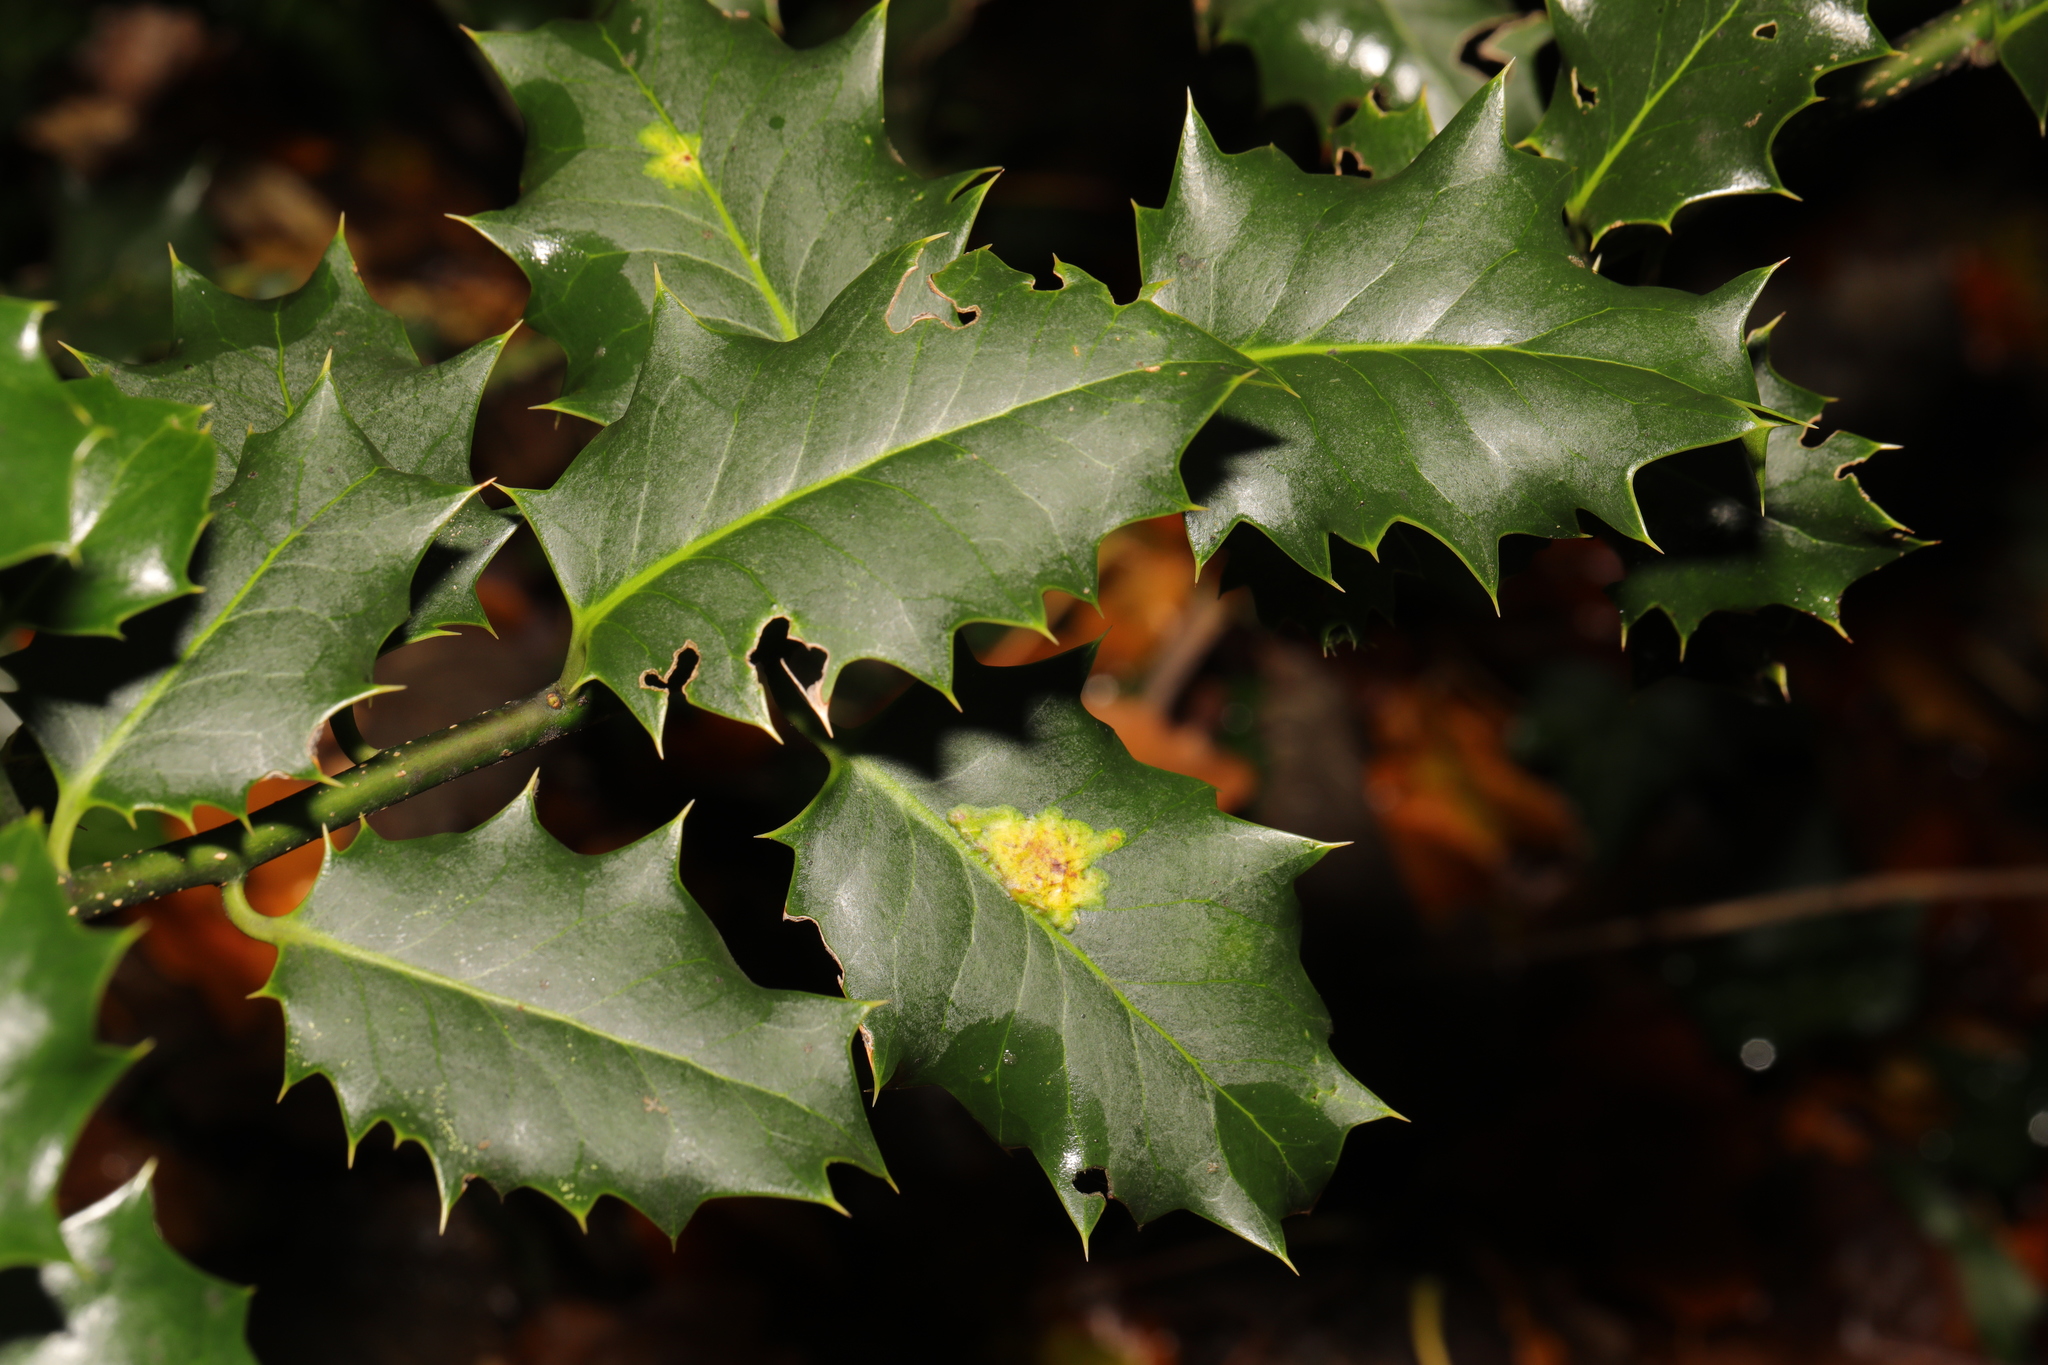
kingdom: Plantae
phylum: Tracheophyta
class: Magnoliopsida
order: Aquifoliales
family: Aquifoliaceae
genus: Ilex
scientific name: Ilex aquifolium
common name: English holly
